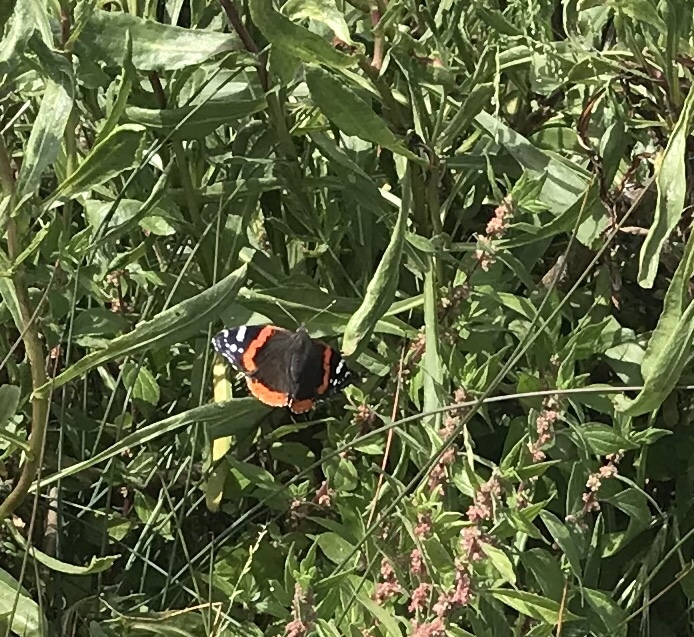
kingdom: Animalia
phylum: Arthropoda
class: Insecta
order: Lepidoptera
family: Nymphalidae
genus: Vanessa
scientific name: Vanessa atalanta
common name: Red admiral
